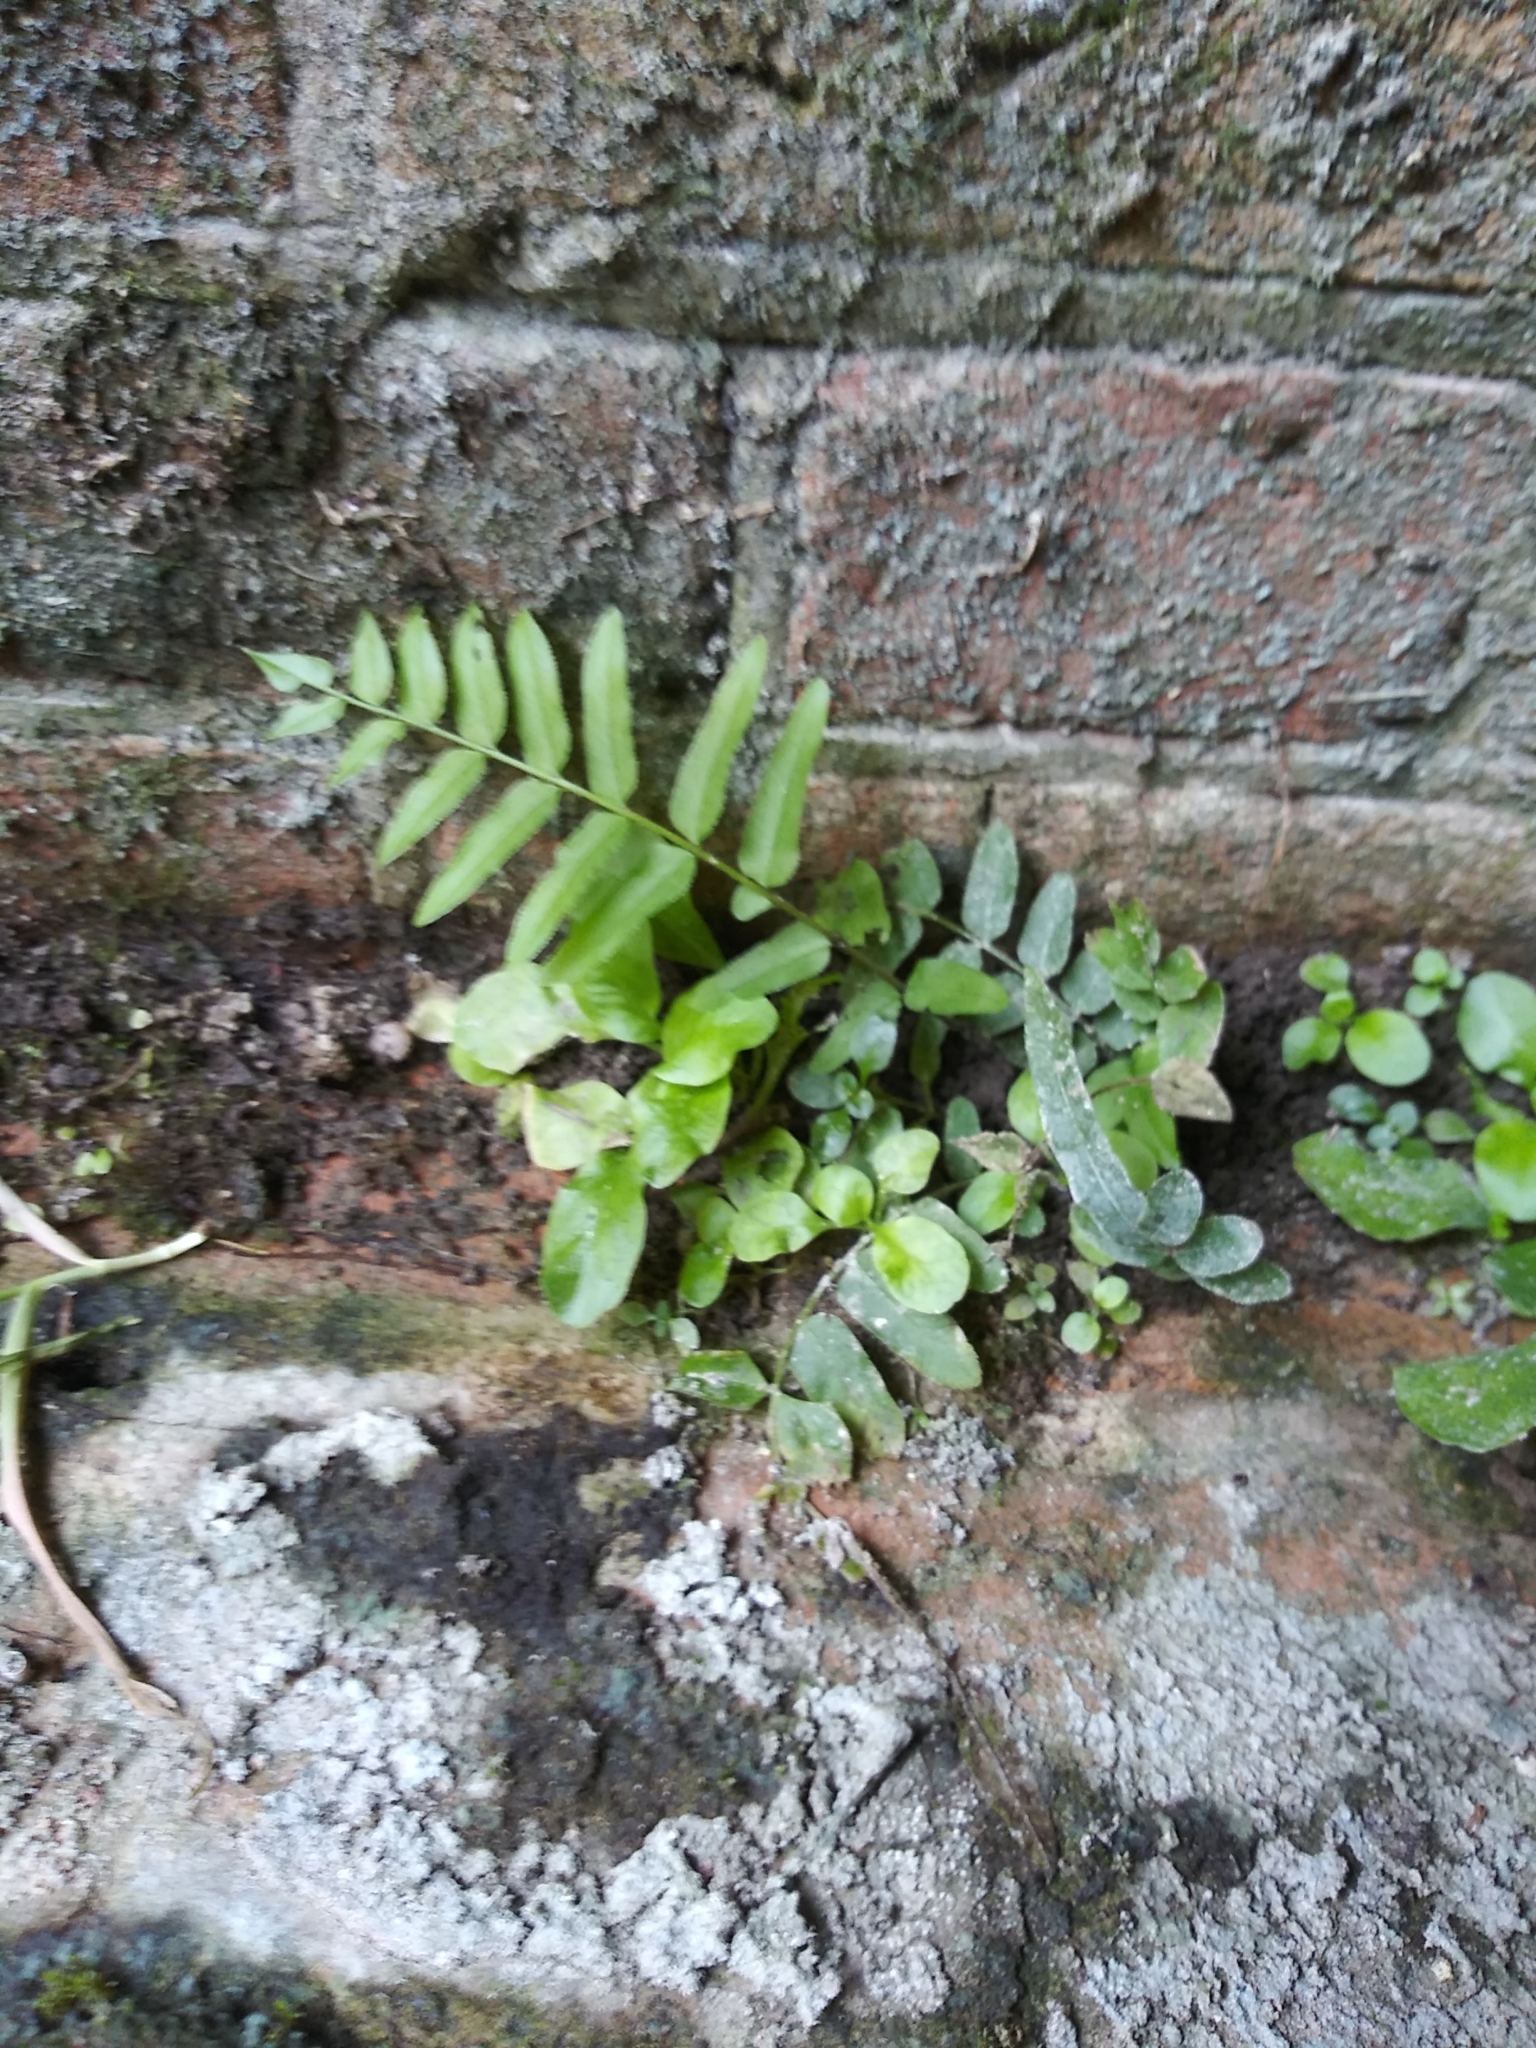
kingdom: Plantae
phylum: Tracheophyta
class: Polypodiopsida
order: Polypodiales
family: Pteridaceae
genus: Pteris
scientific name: Pteris vittata
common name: Ladder brake
